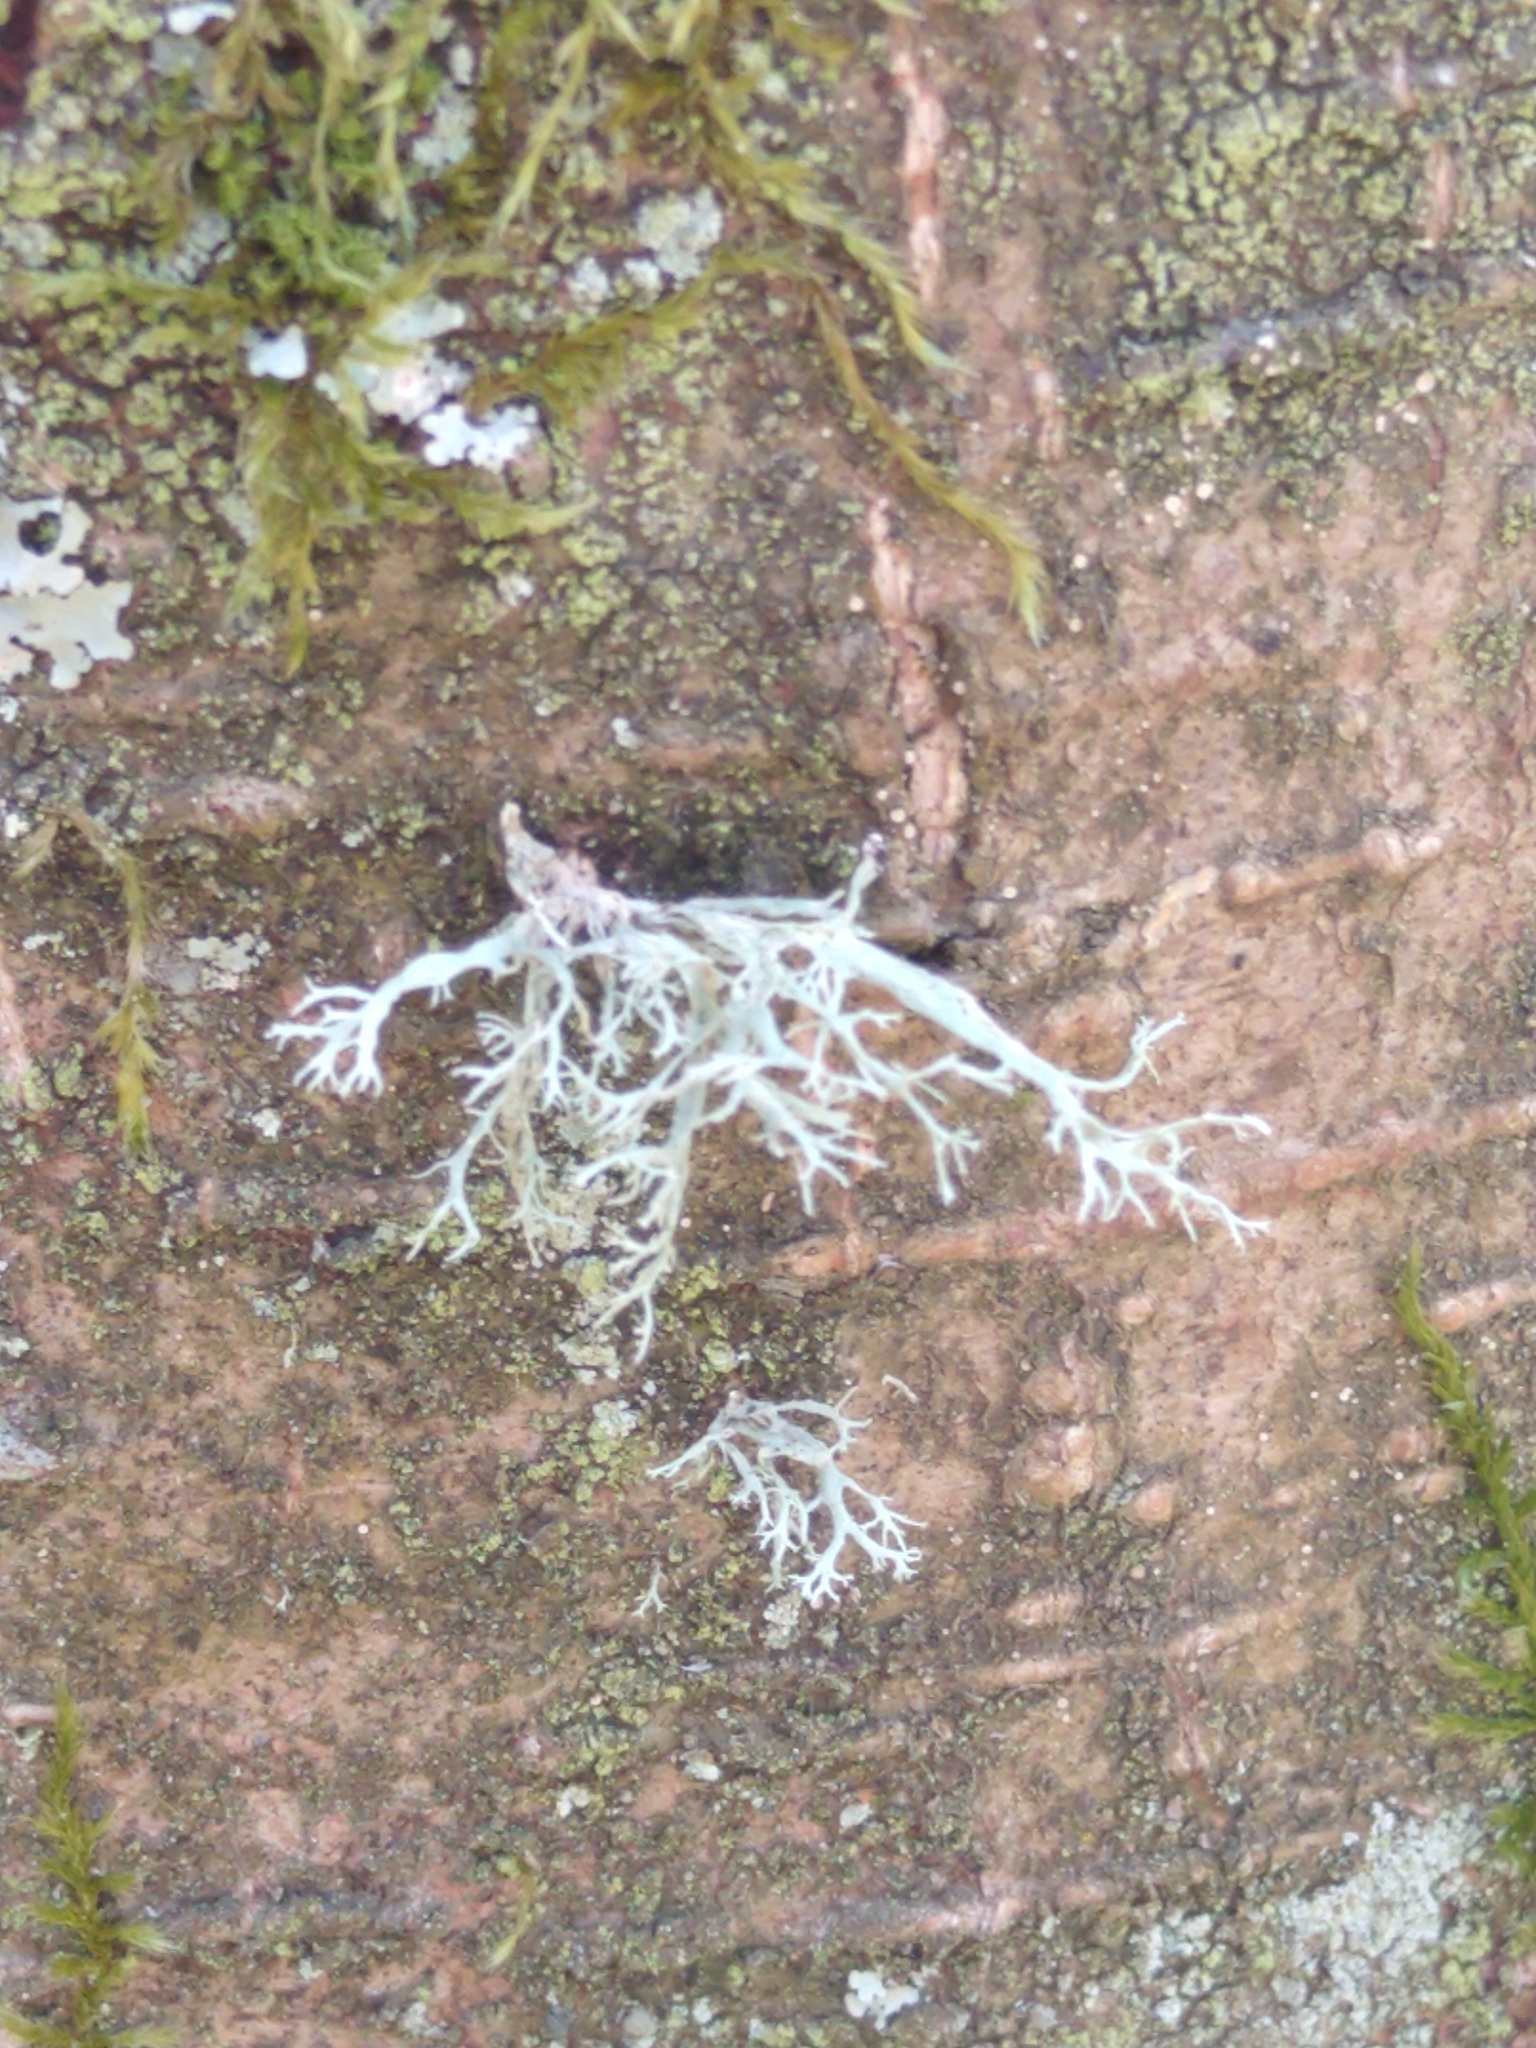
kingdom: Fungi
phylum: Ascomycota
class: Lecanoromycetes
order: Lecanorales
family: Ramalinaceae
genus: Ramalina
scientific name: Ramalina farinacea
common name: Farinose cartilage lichen
